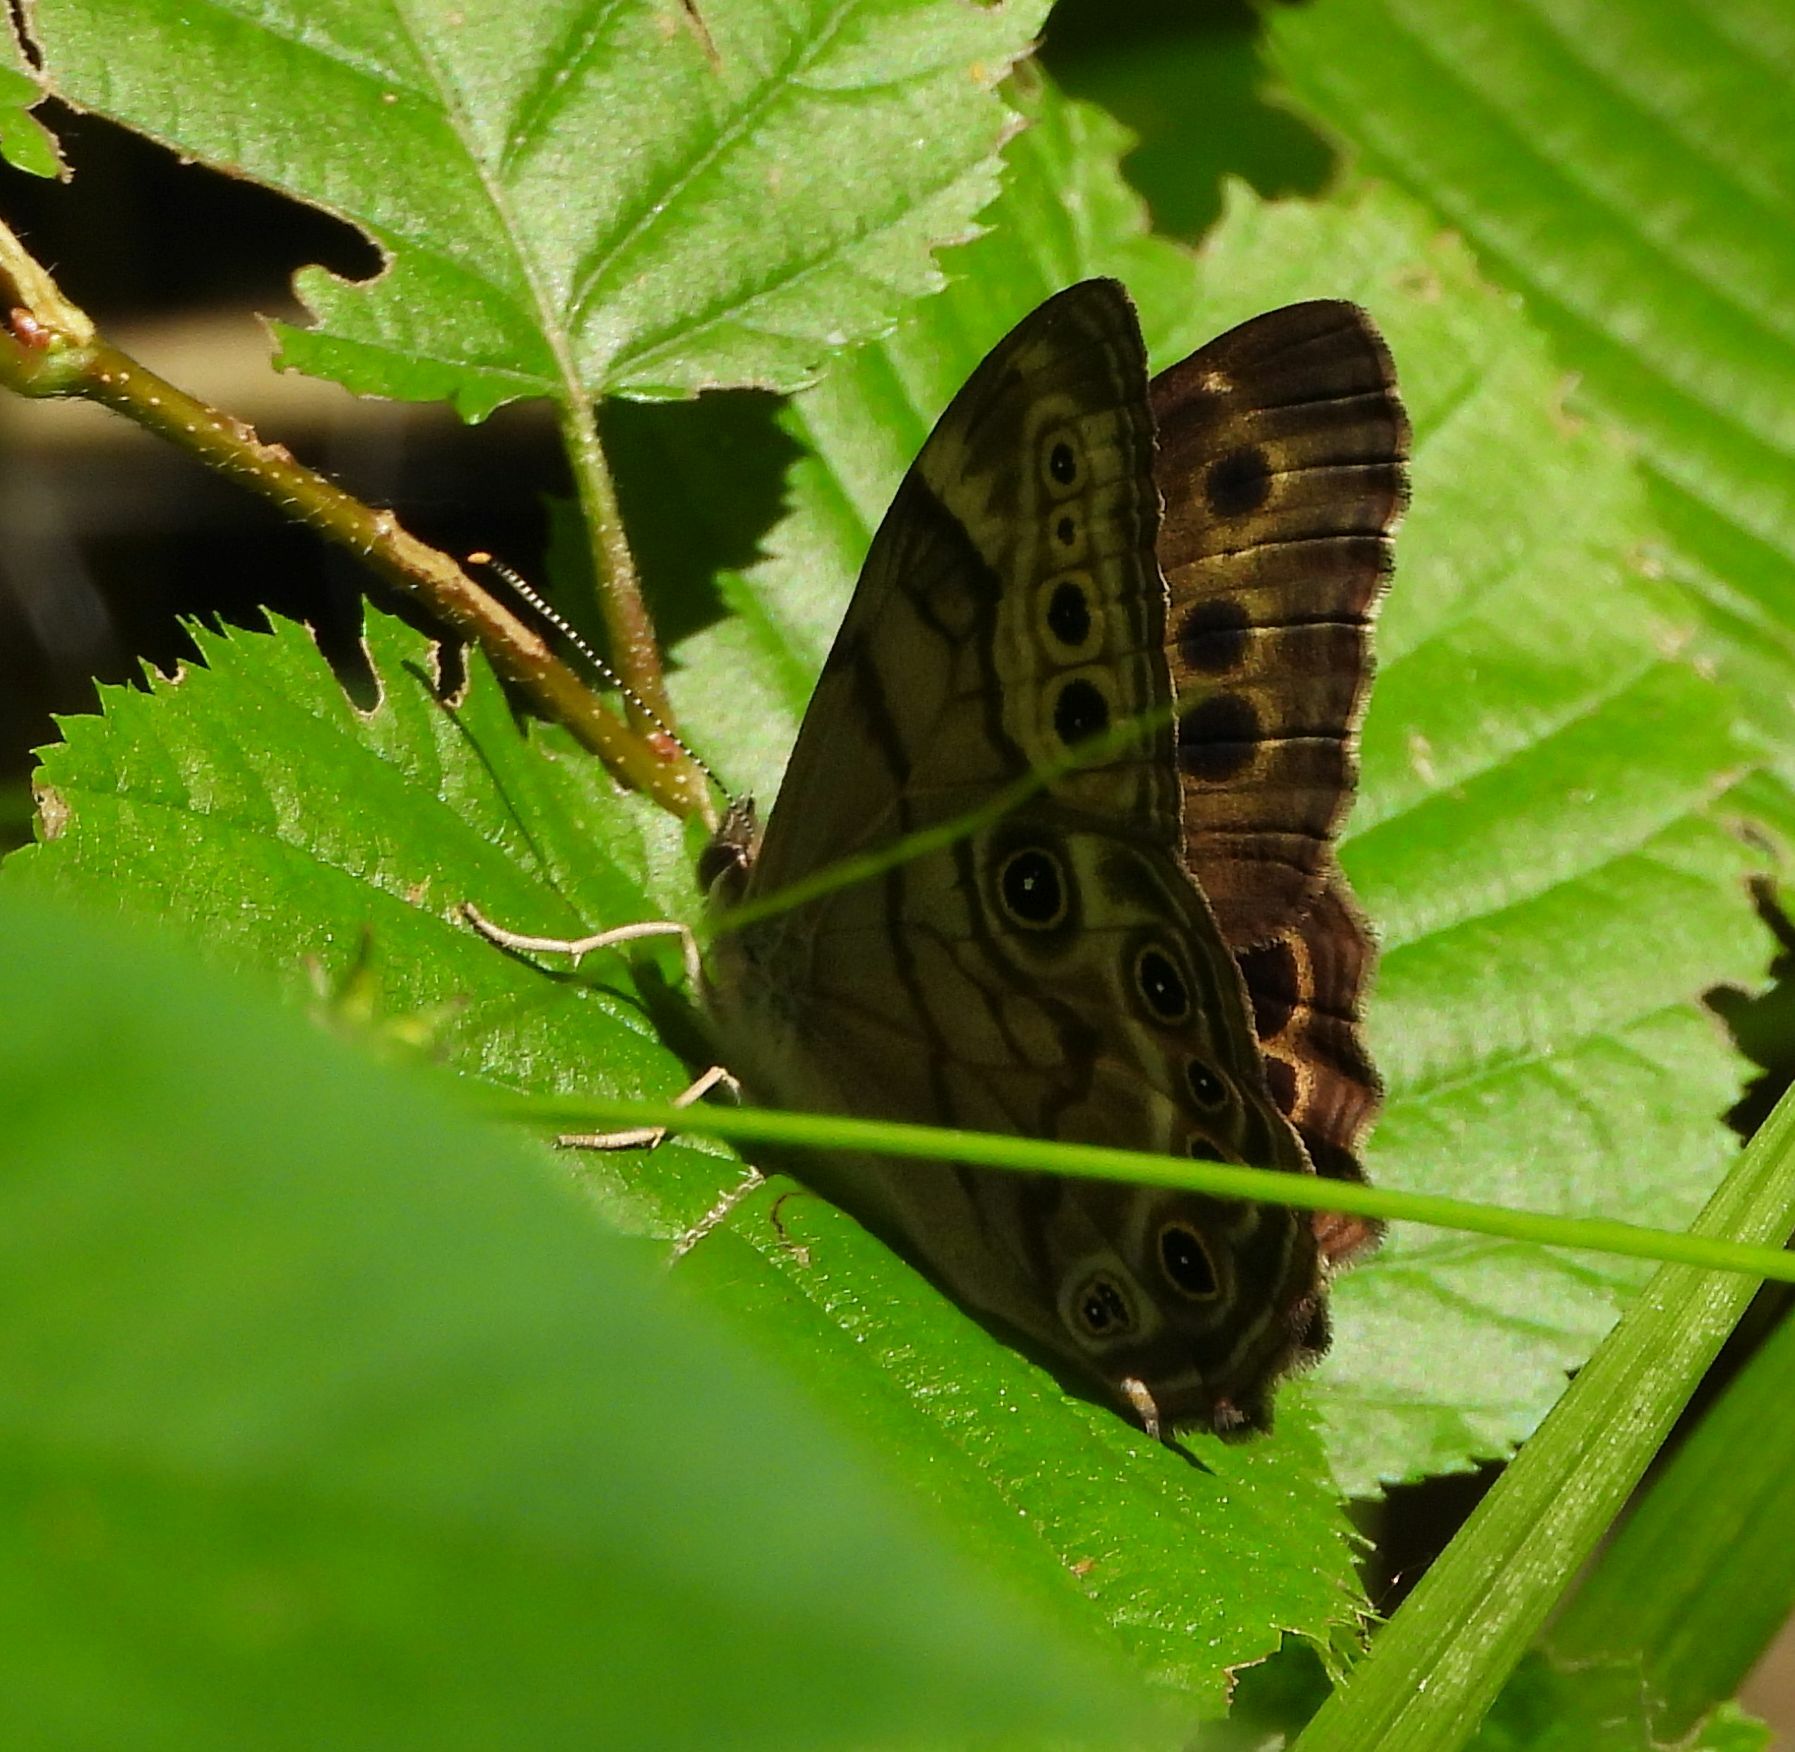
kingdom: Animalia
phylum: Arthropoda
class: Insecta
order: Lepidoptera
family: Nymphalidae
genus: Lethe
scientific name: Lethe anthedon
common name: Northern pearly-eye
